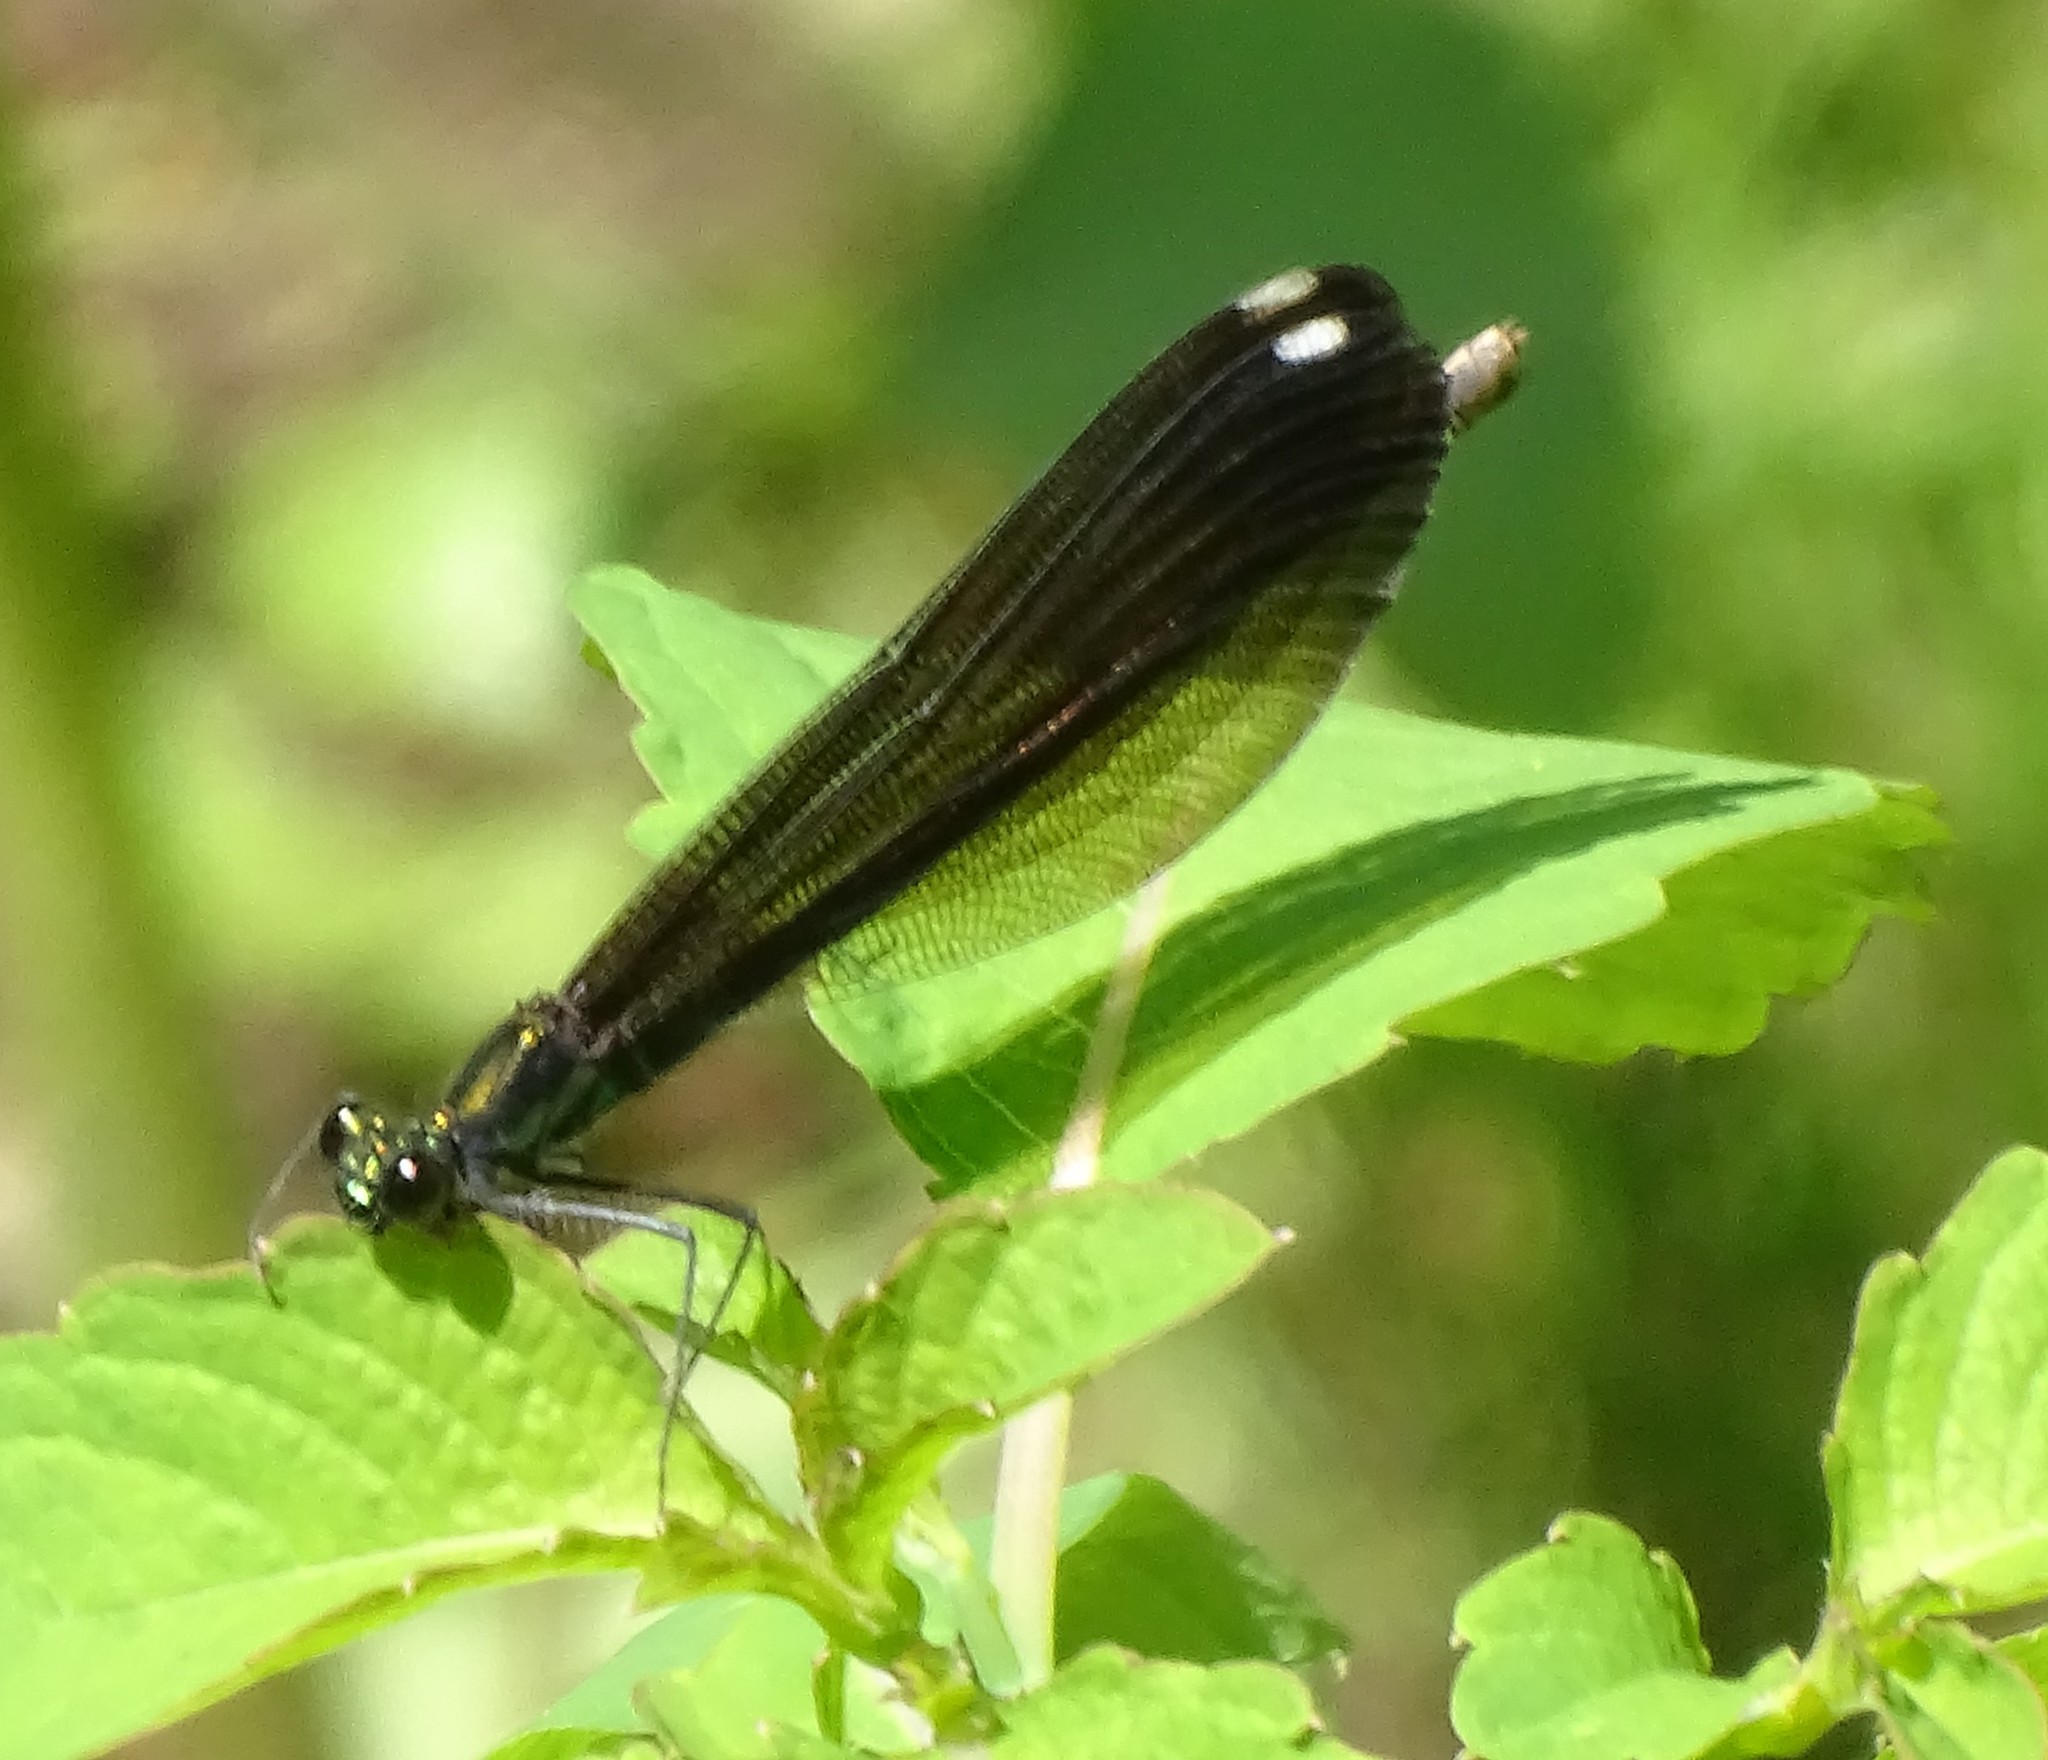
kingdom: Animalia
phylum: Arthropoda
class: Insecta
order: Odonata
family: Calopterygidae
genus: Calopteryx
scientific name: Calopteryx maculata
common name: Ebony jewelwing
